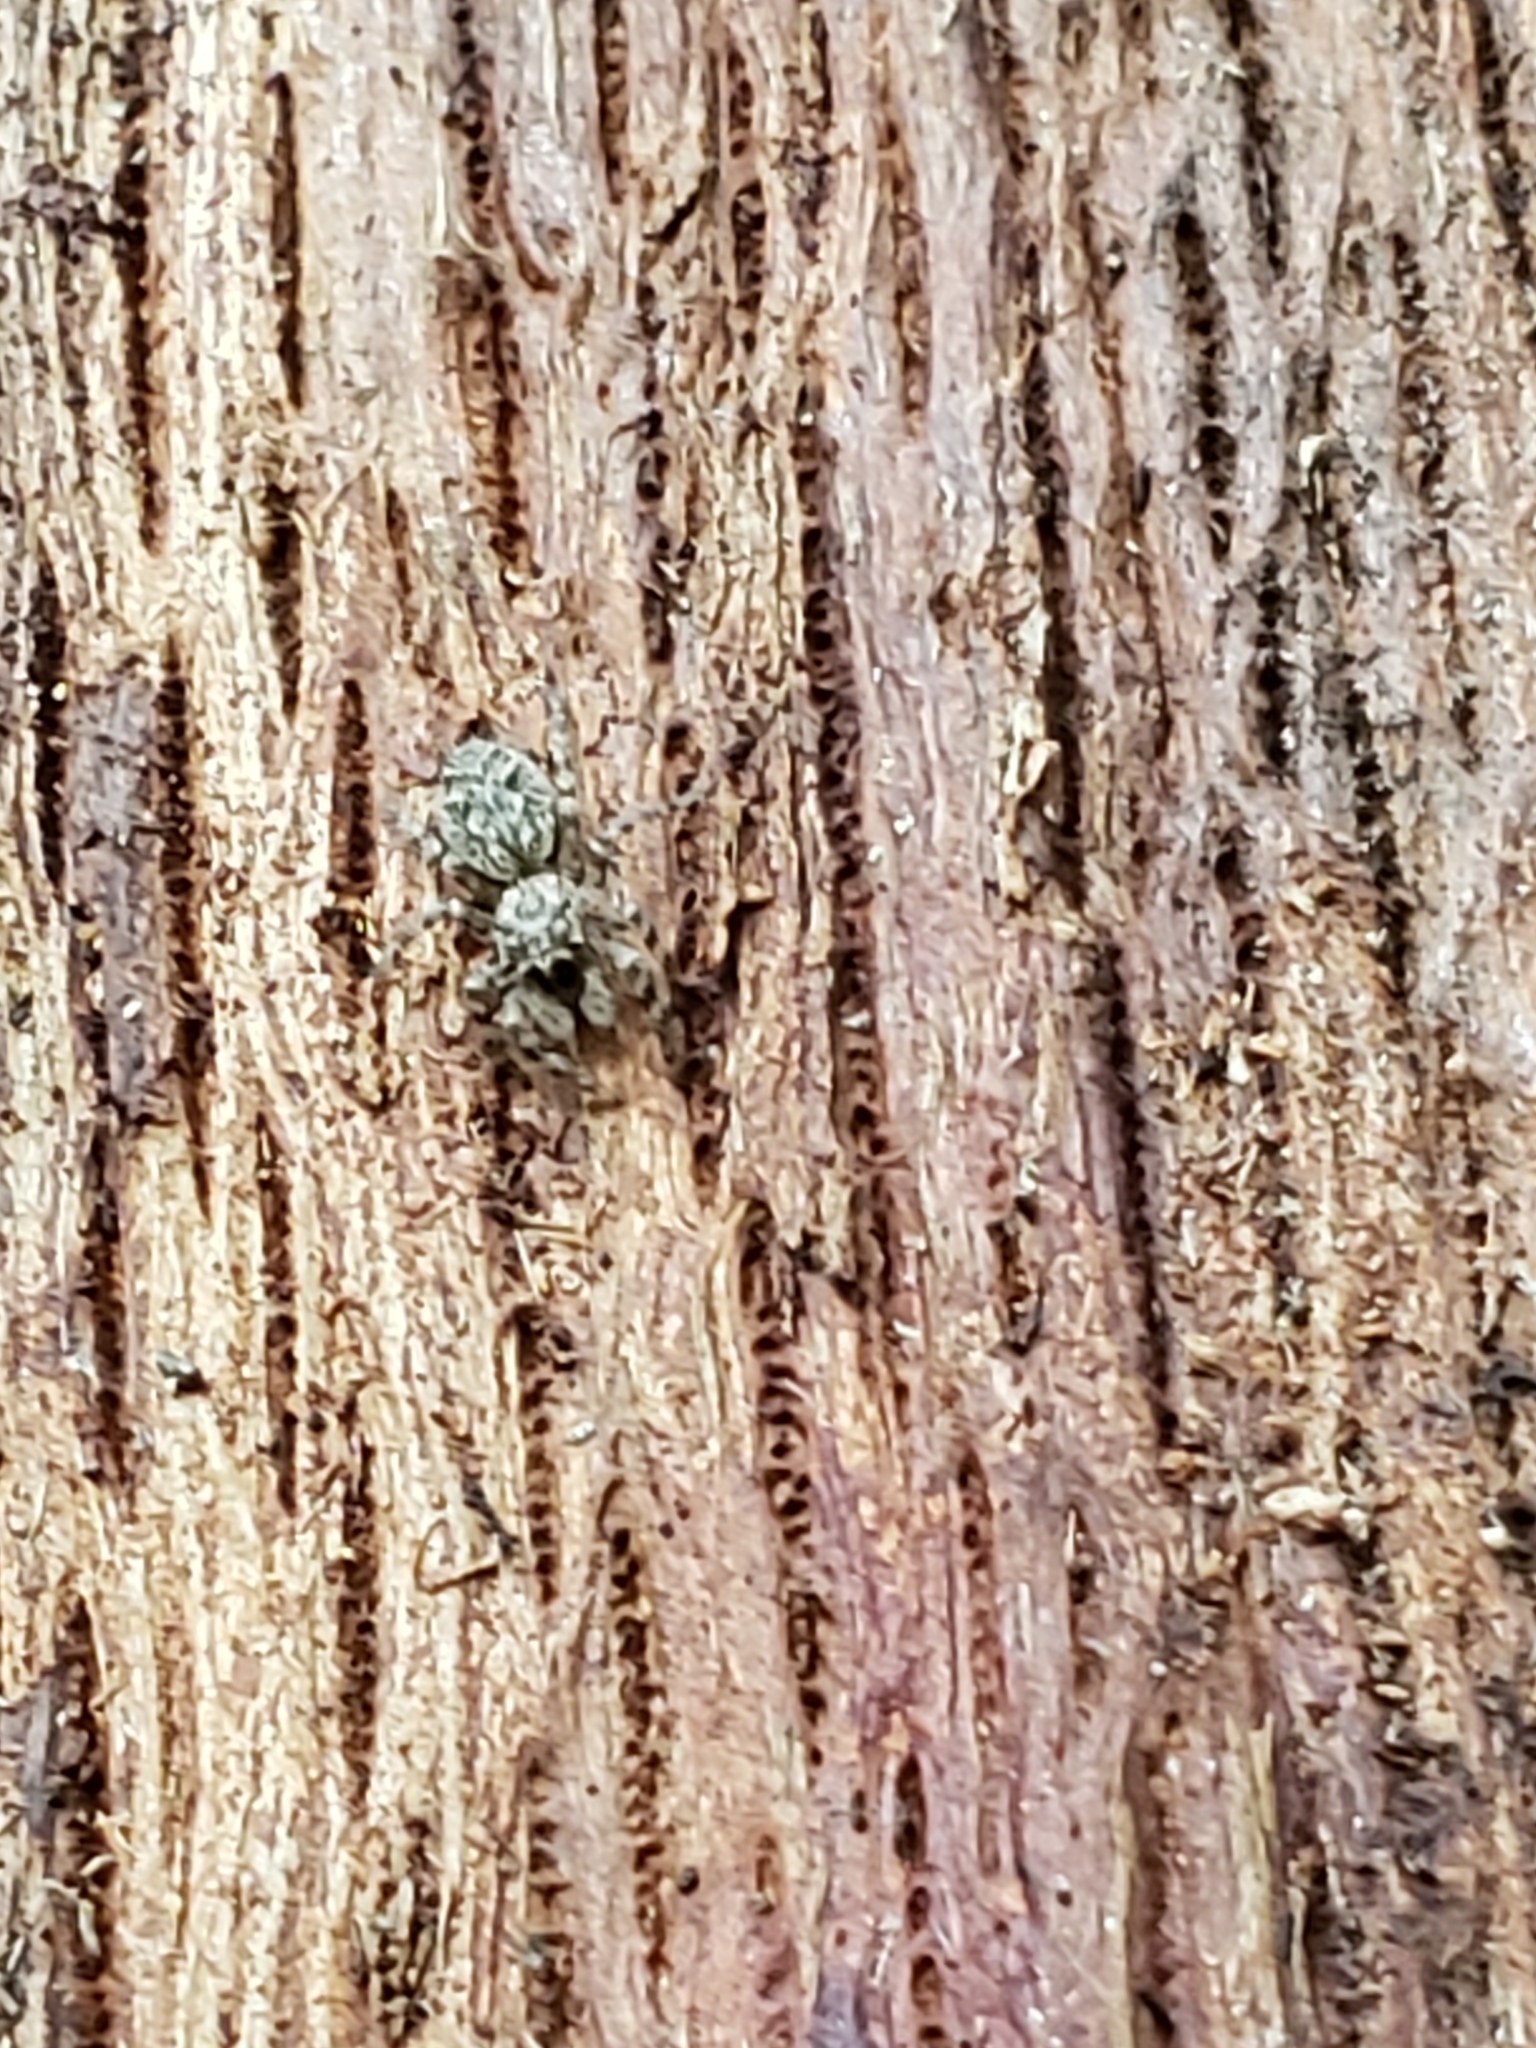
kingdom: Animalia
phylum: Arthropoda
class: Arachnida
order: Araneae
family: Salticidae
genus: Platycryptus
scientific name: Platycryptus undatus
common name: Tan jumping spider
